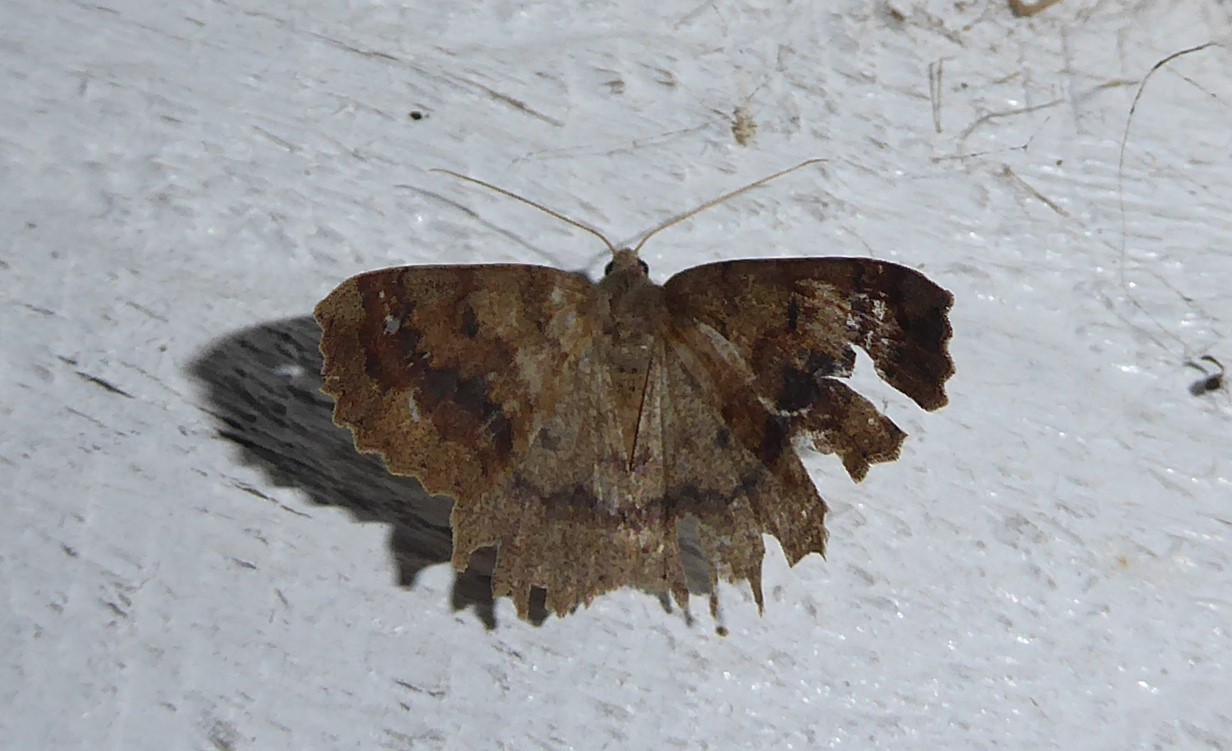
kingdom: Animalia
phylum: Arthropoda
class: Insecta
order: Lepidoptera
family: Geometridae
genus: Cleora
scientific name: Cleora scriptaria
